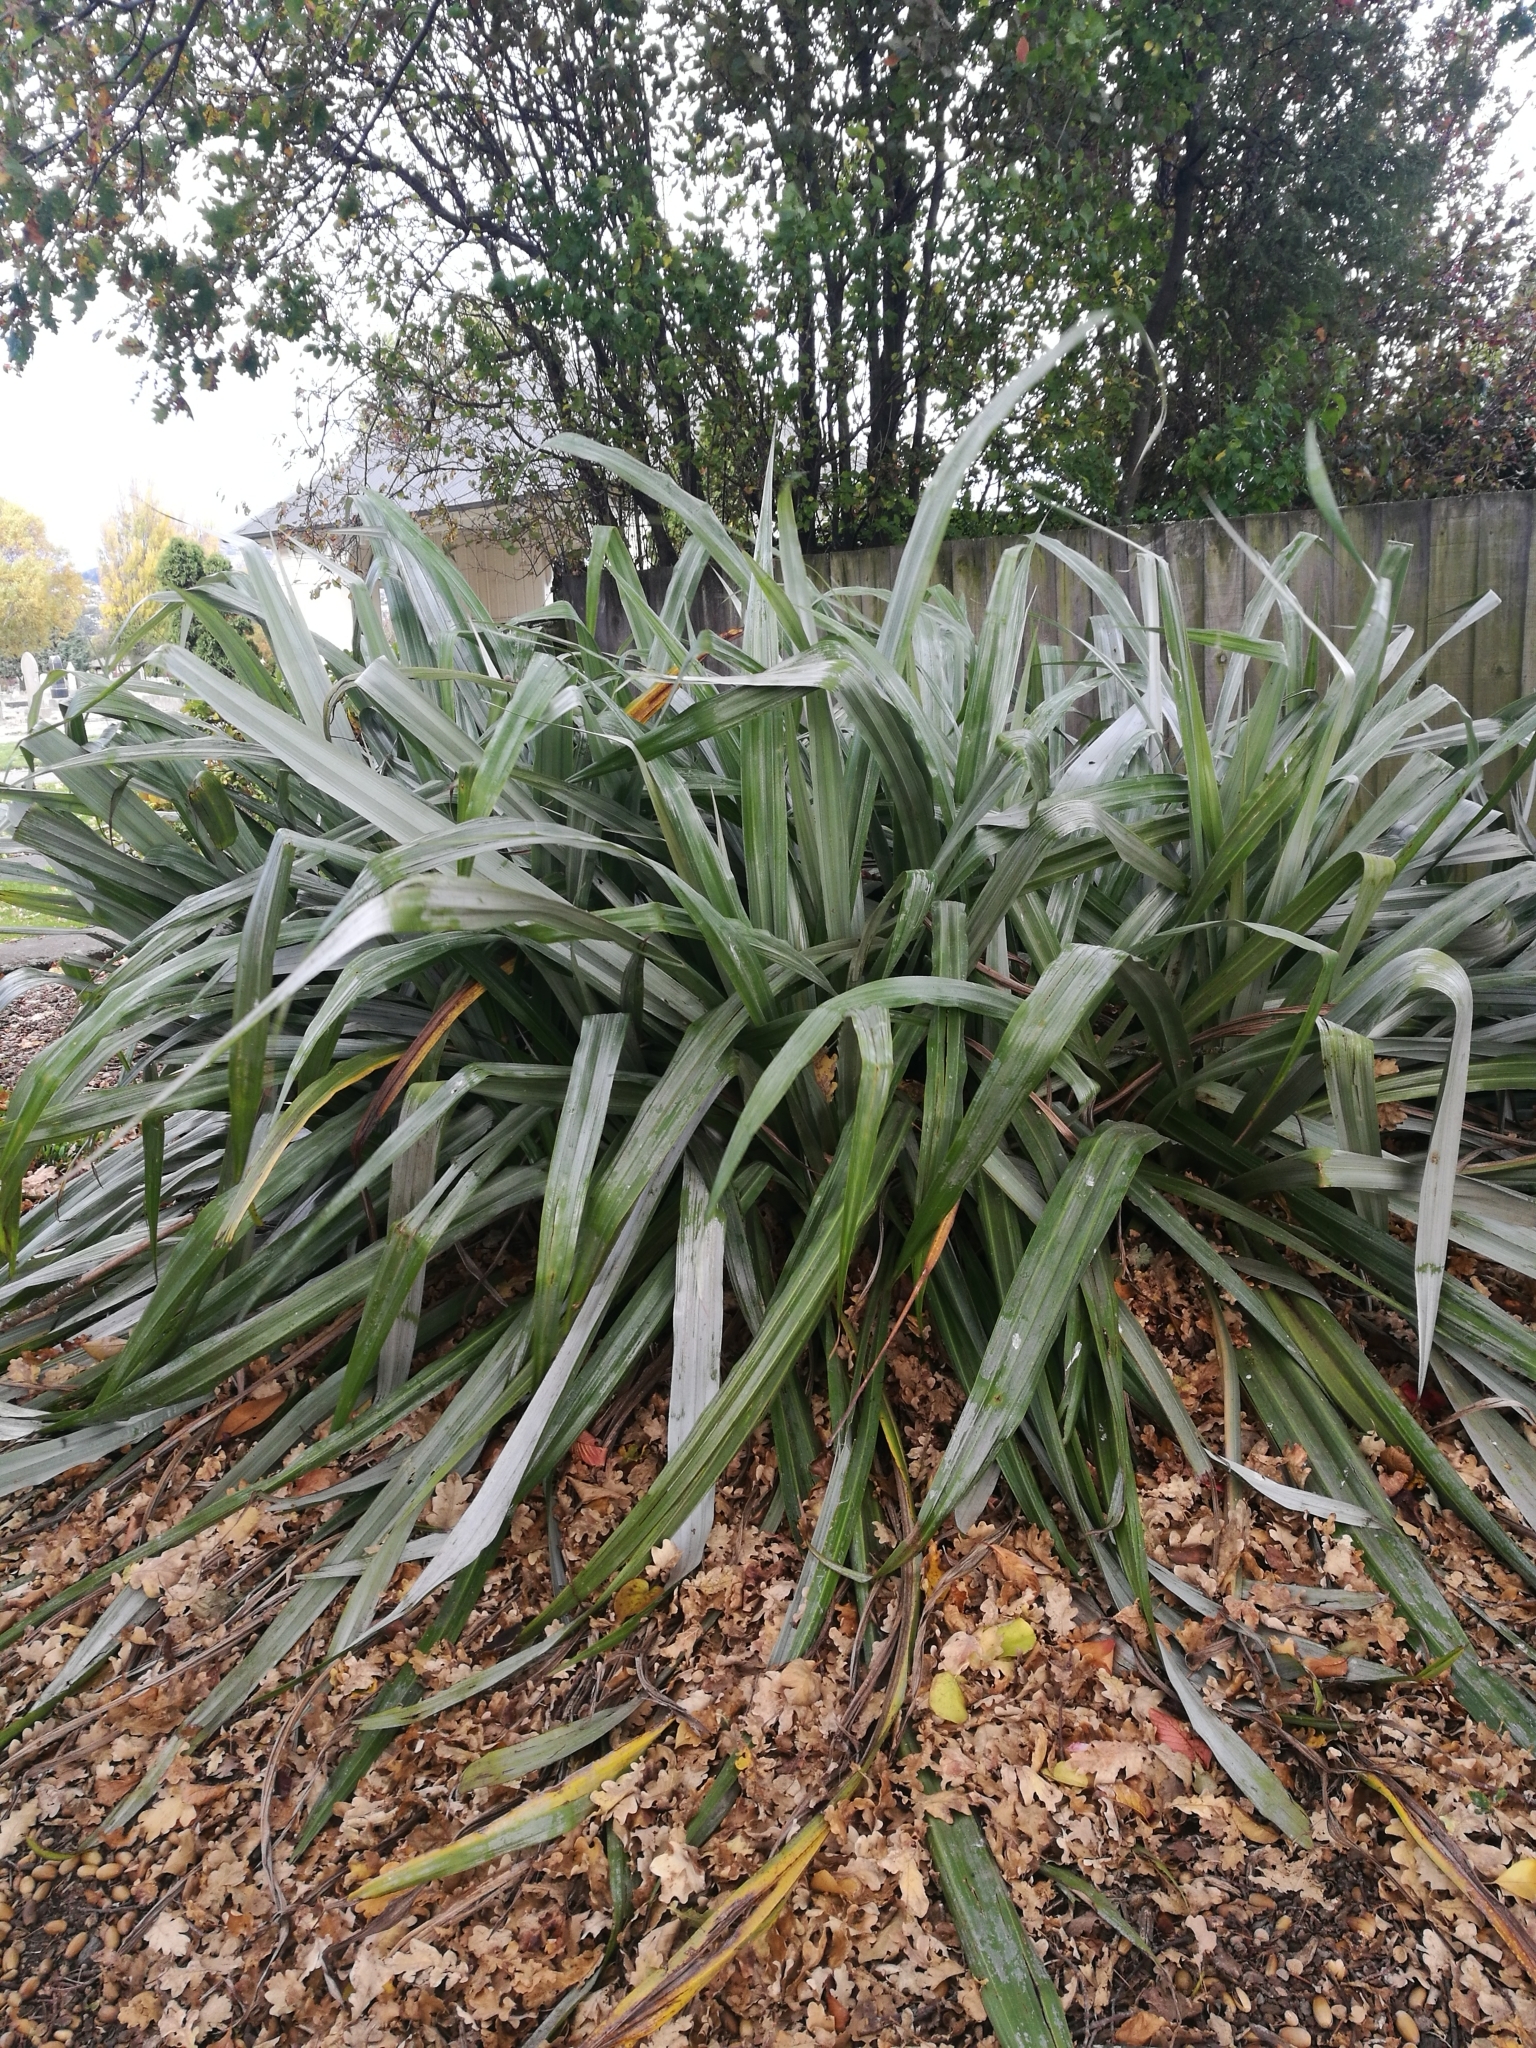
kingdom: Plantae
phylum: Tracheophyta
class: Liliopsida
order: Asparagales
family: Asteliaceae
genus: Astelia
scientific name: Astelia chathamica
